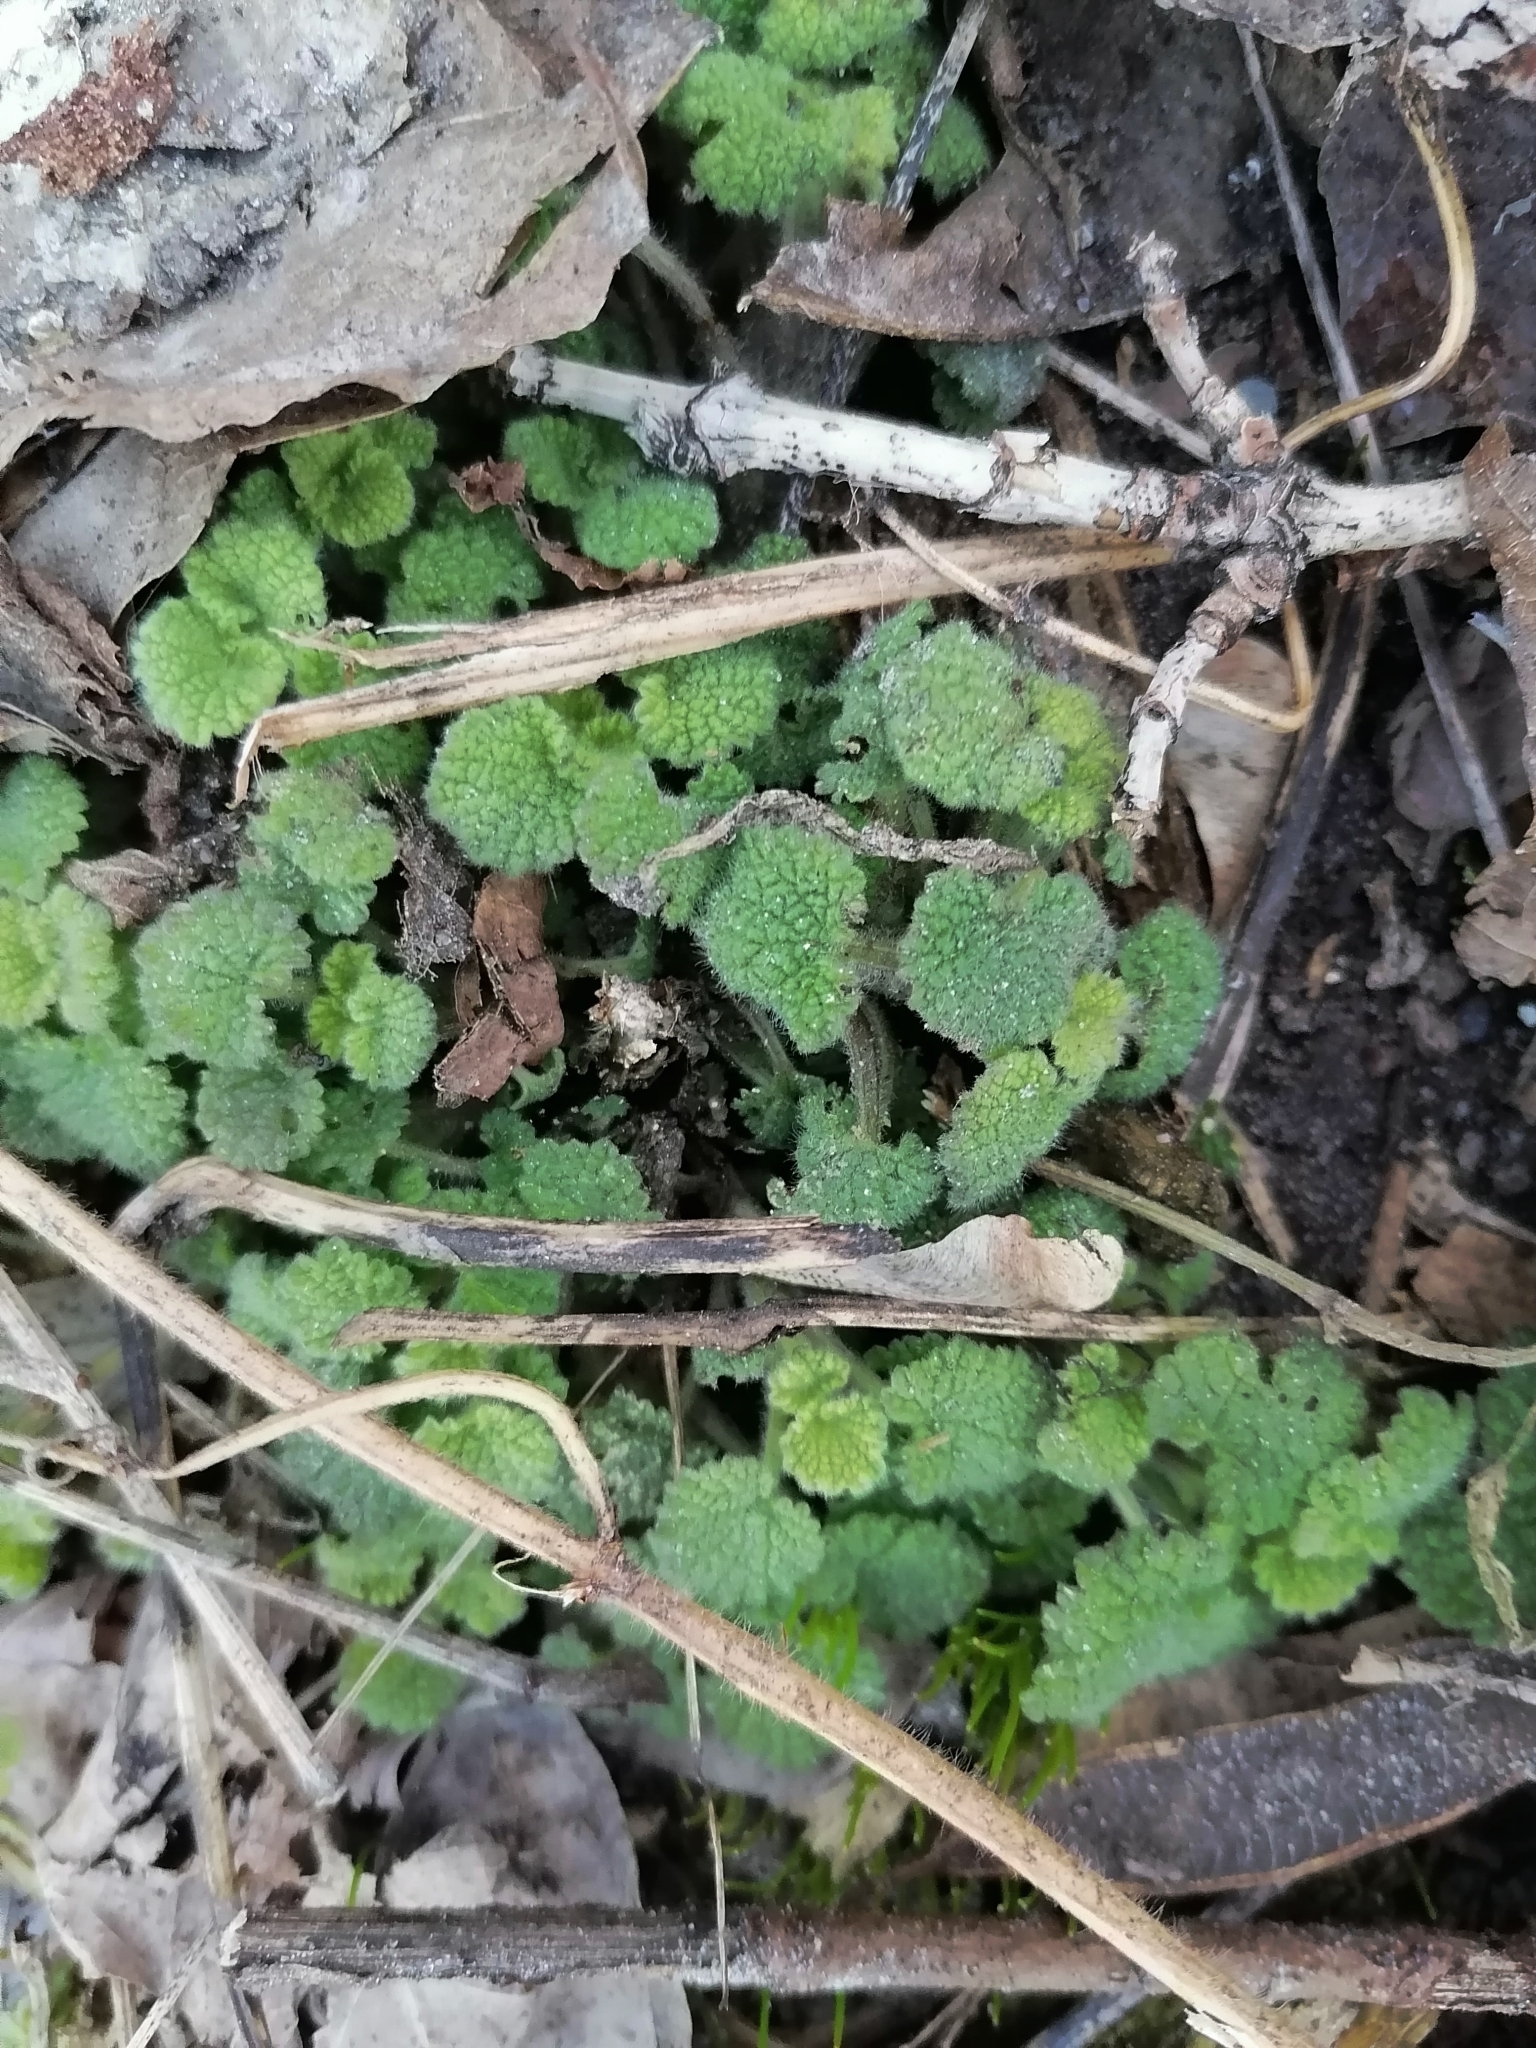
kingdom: Plantae
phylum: Tracheophyta
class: Magnoliopsida
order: Lamiales
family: Lamiaceae
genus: Ballota
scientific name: Ballota nigra
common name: Black horehound
